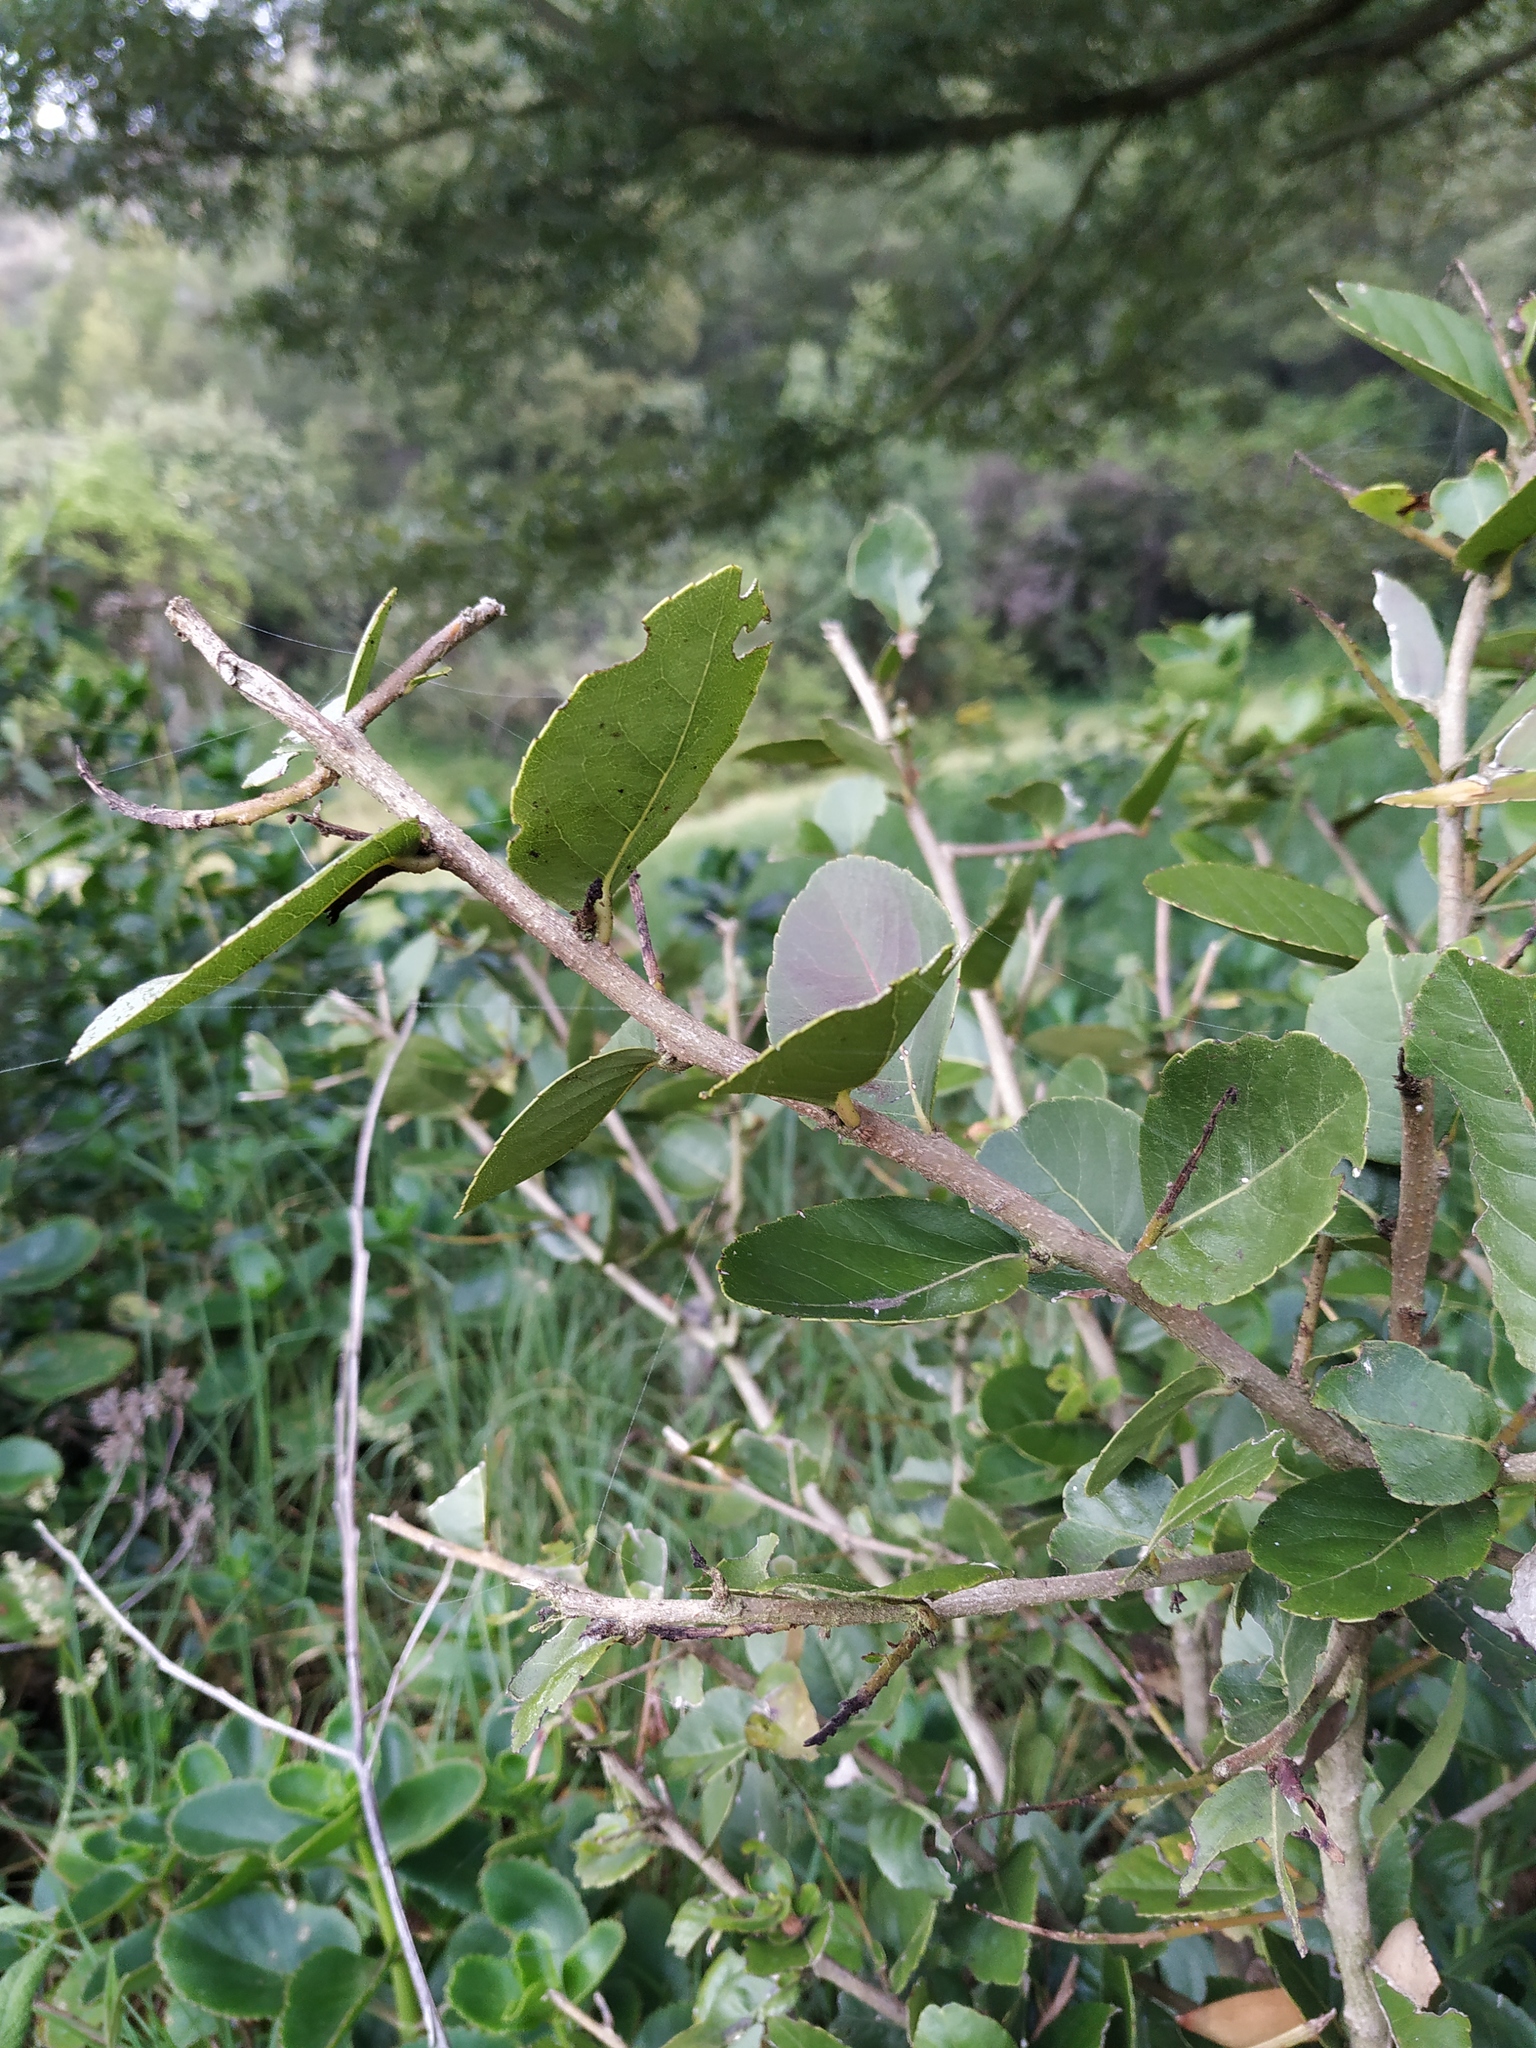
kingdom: Plantae
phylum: Tracheophyta
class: Magnoliopsida
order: Malpighiales
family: Salicaceae
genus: Xylosma
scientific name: Xylosma spiculifera
